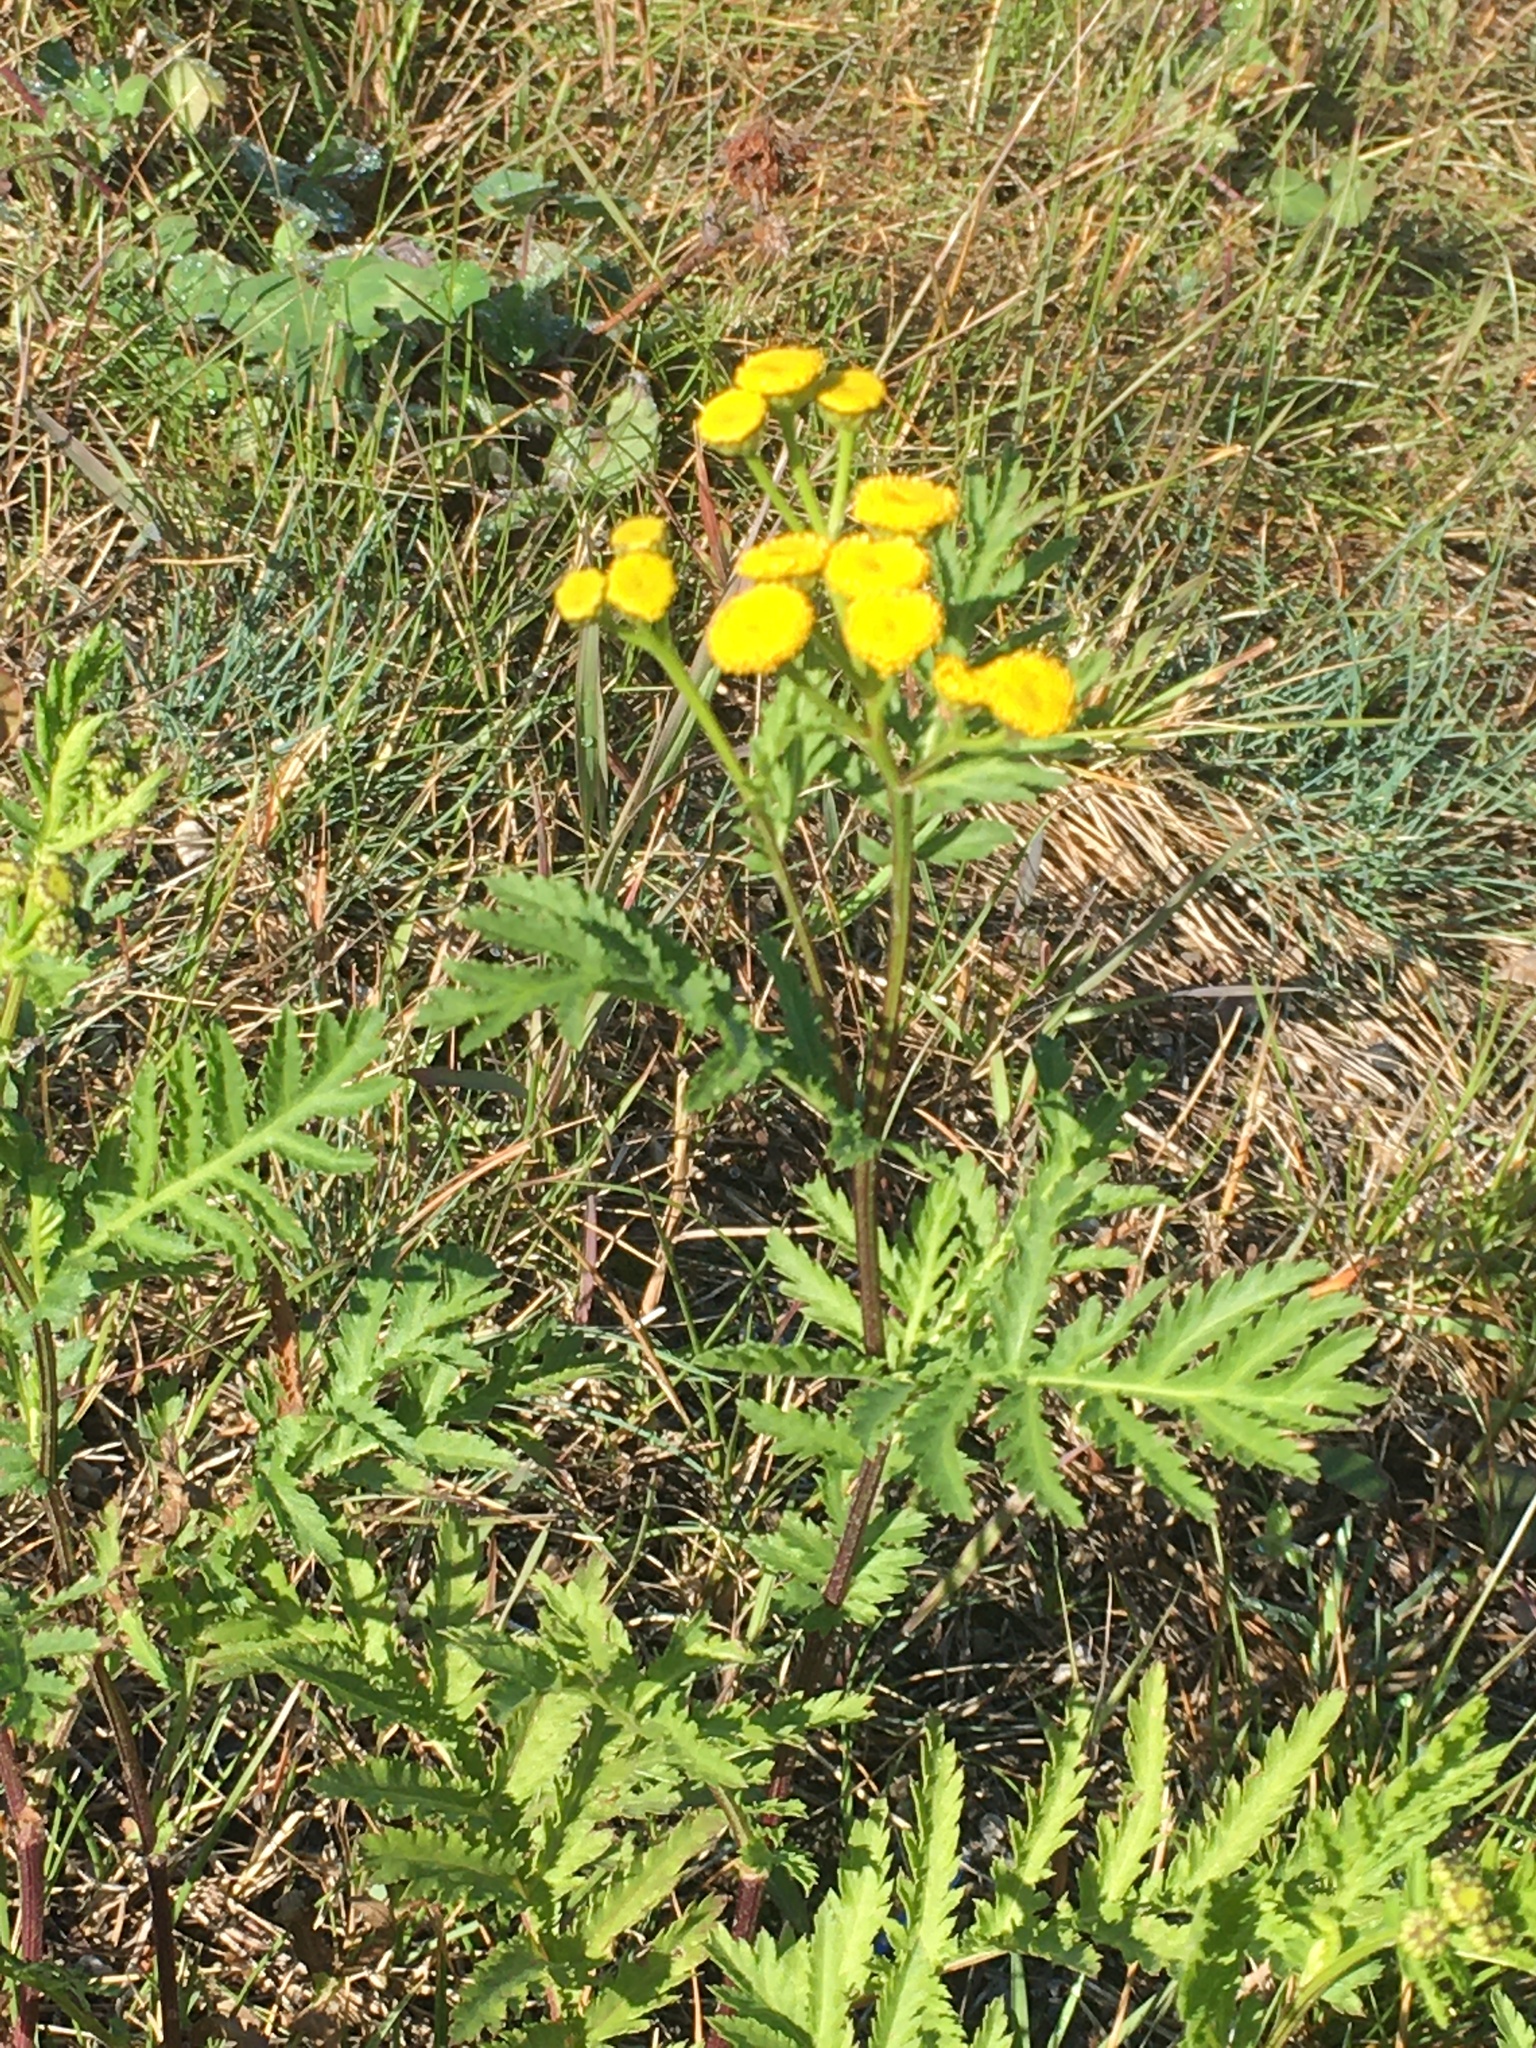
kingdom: Plantae
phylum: Tracheophyta
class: Magnoliopsida
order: Asterales
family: Asteraceae
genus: Tanacetum
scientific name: Tanacetum vulgare
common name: Common tansy
